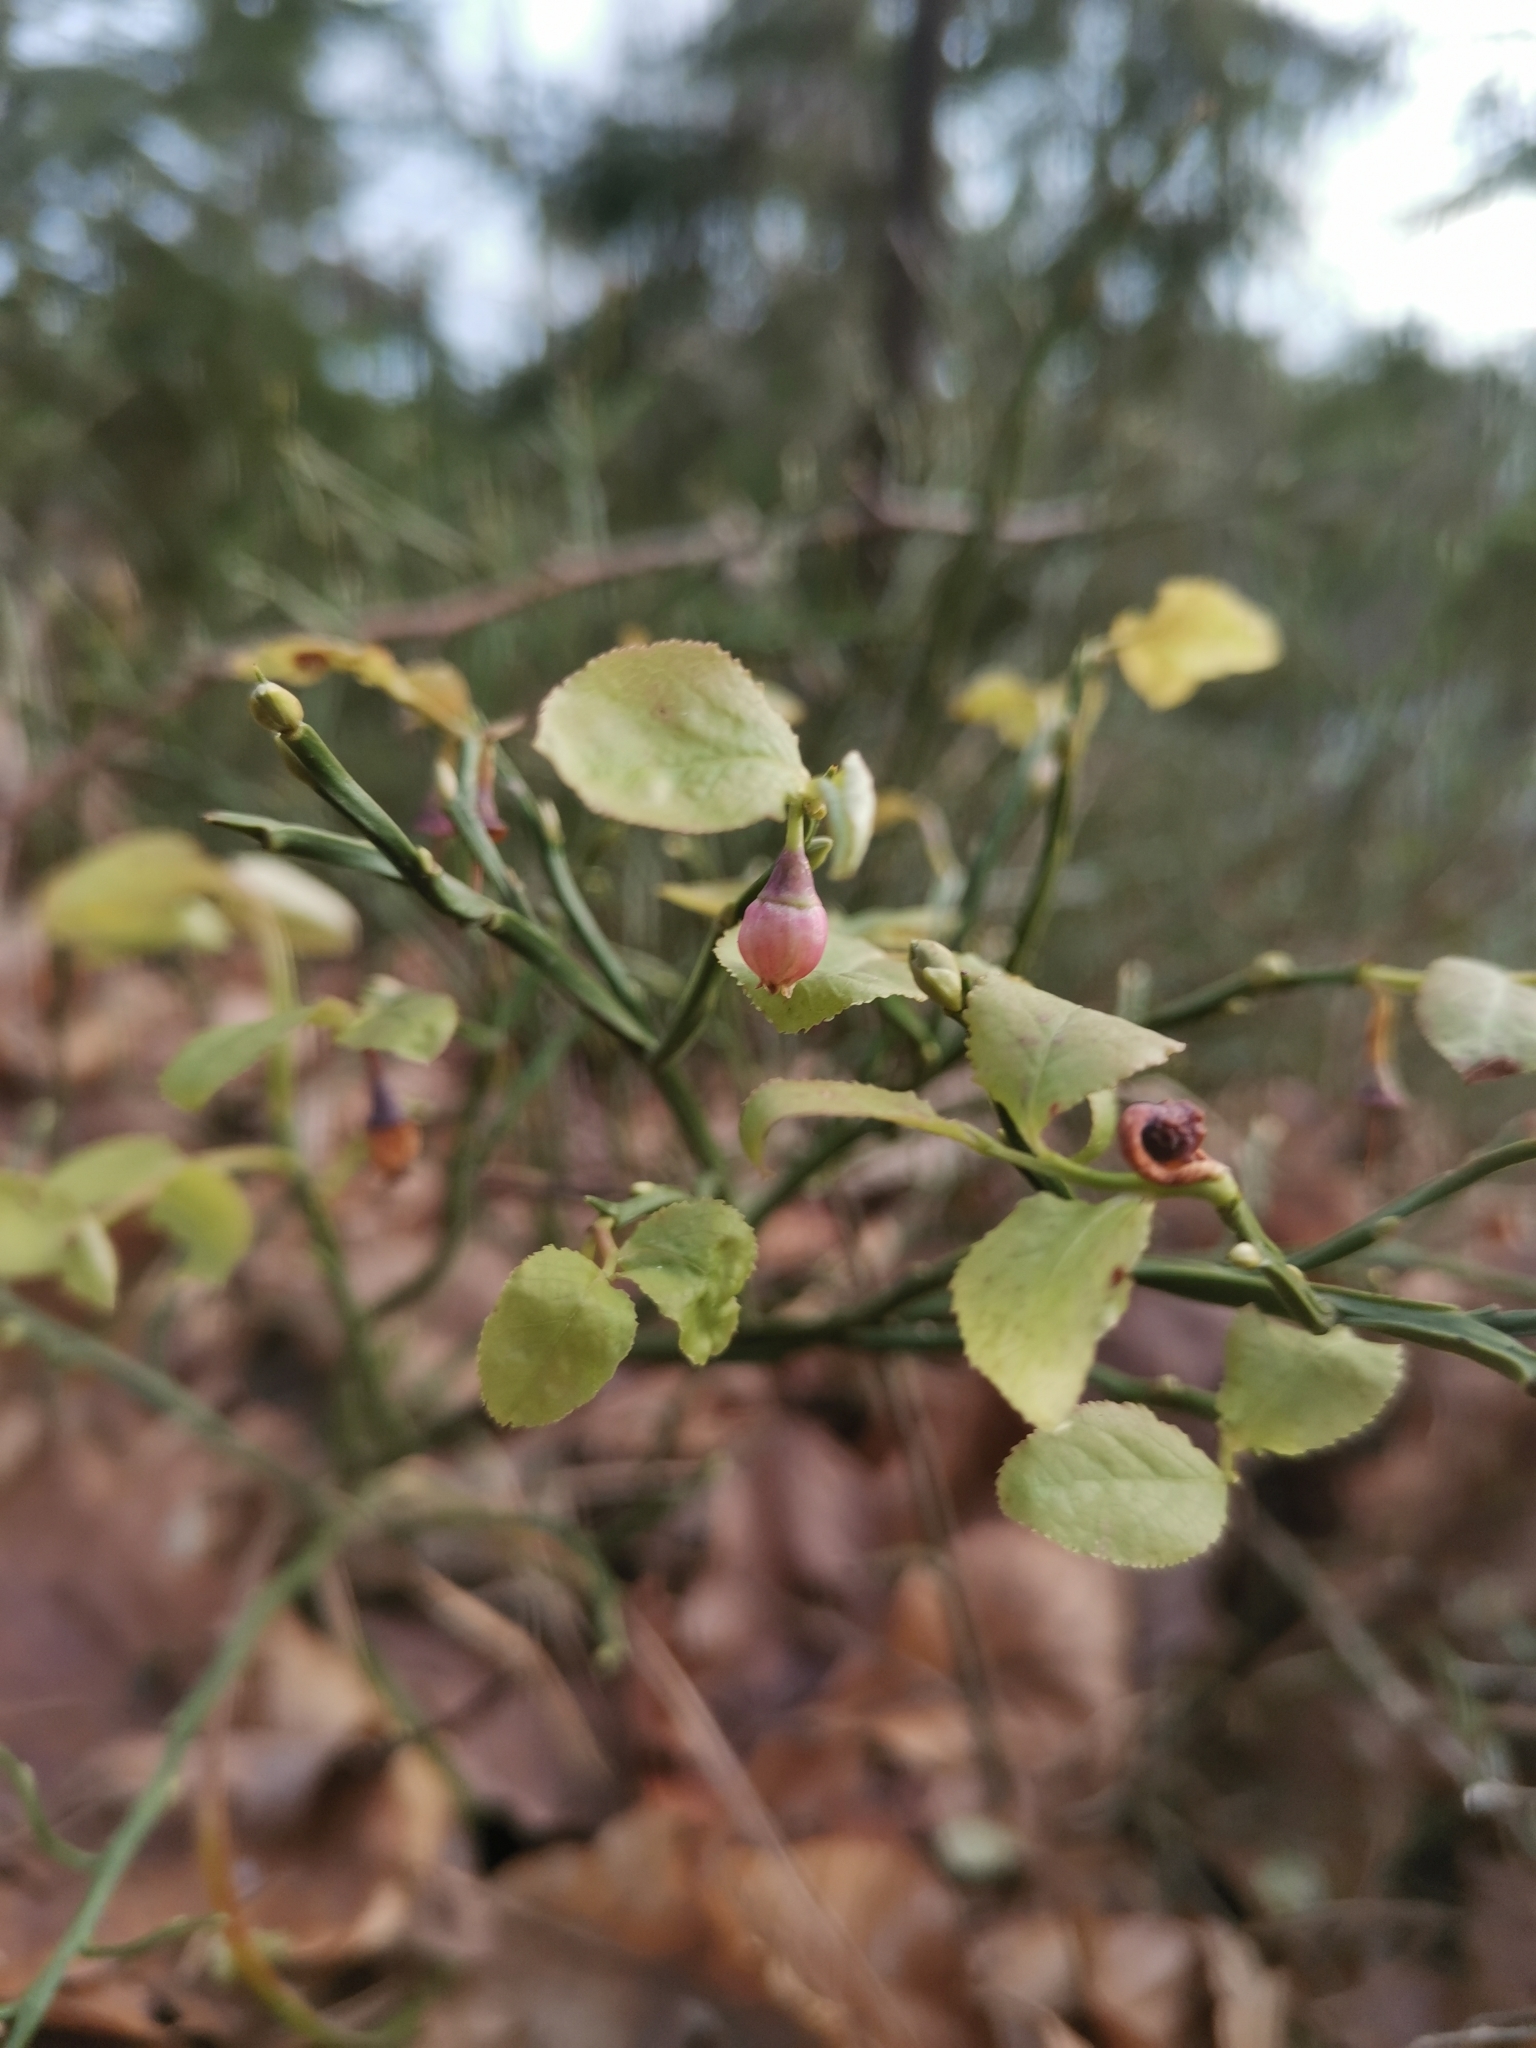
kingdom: Plantae
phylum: Tracheophyta
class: Magnoliopsida
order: Ericales
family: Ericaceae
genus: Vaccinium
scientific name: Vaccinium myrtillus
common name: Bilberry
